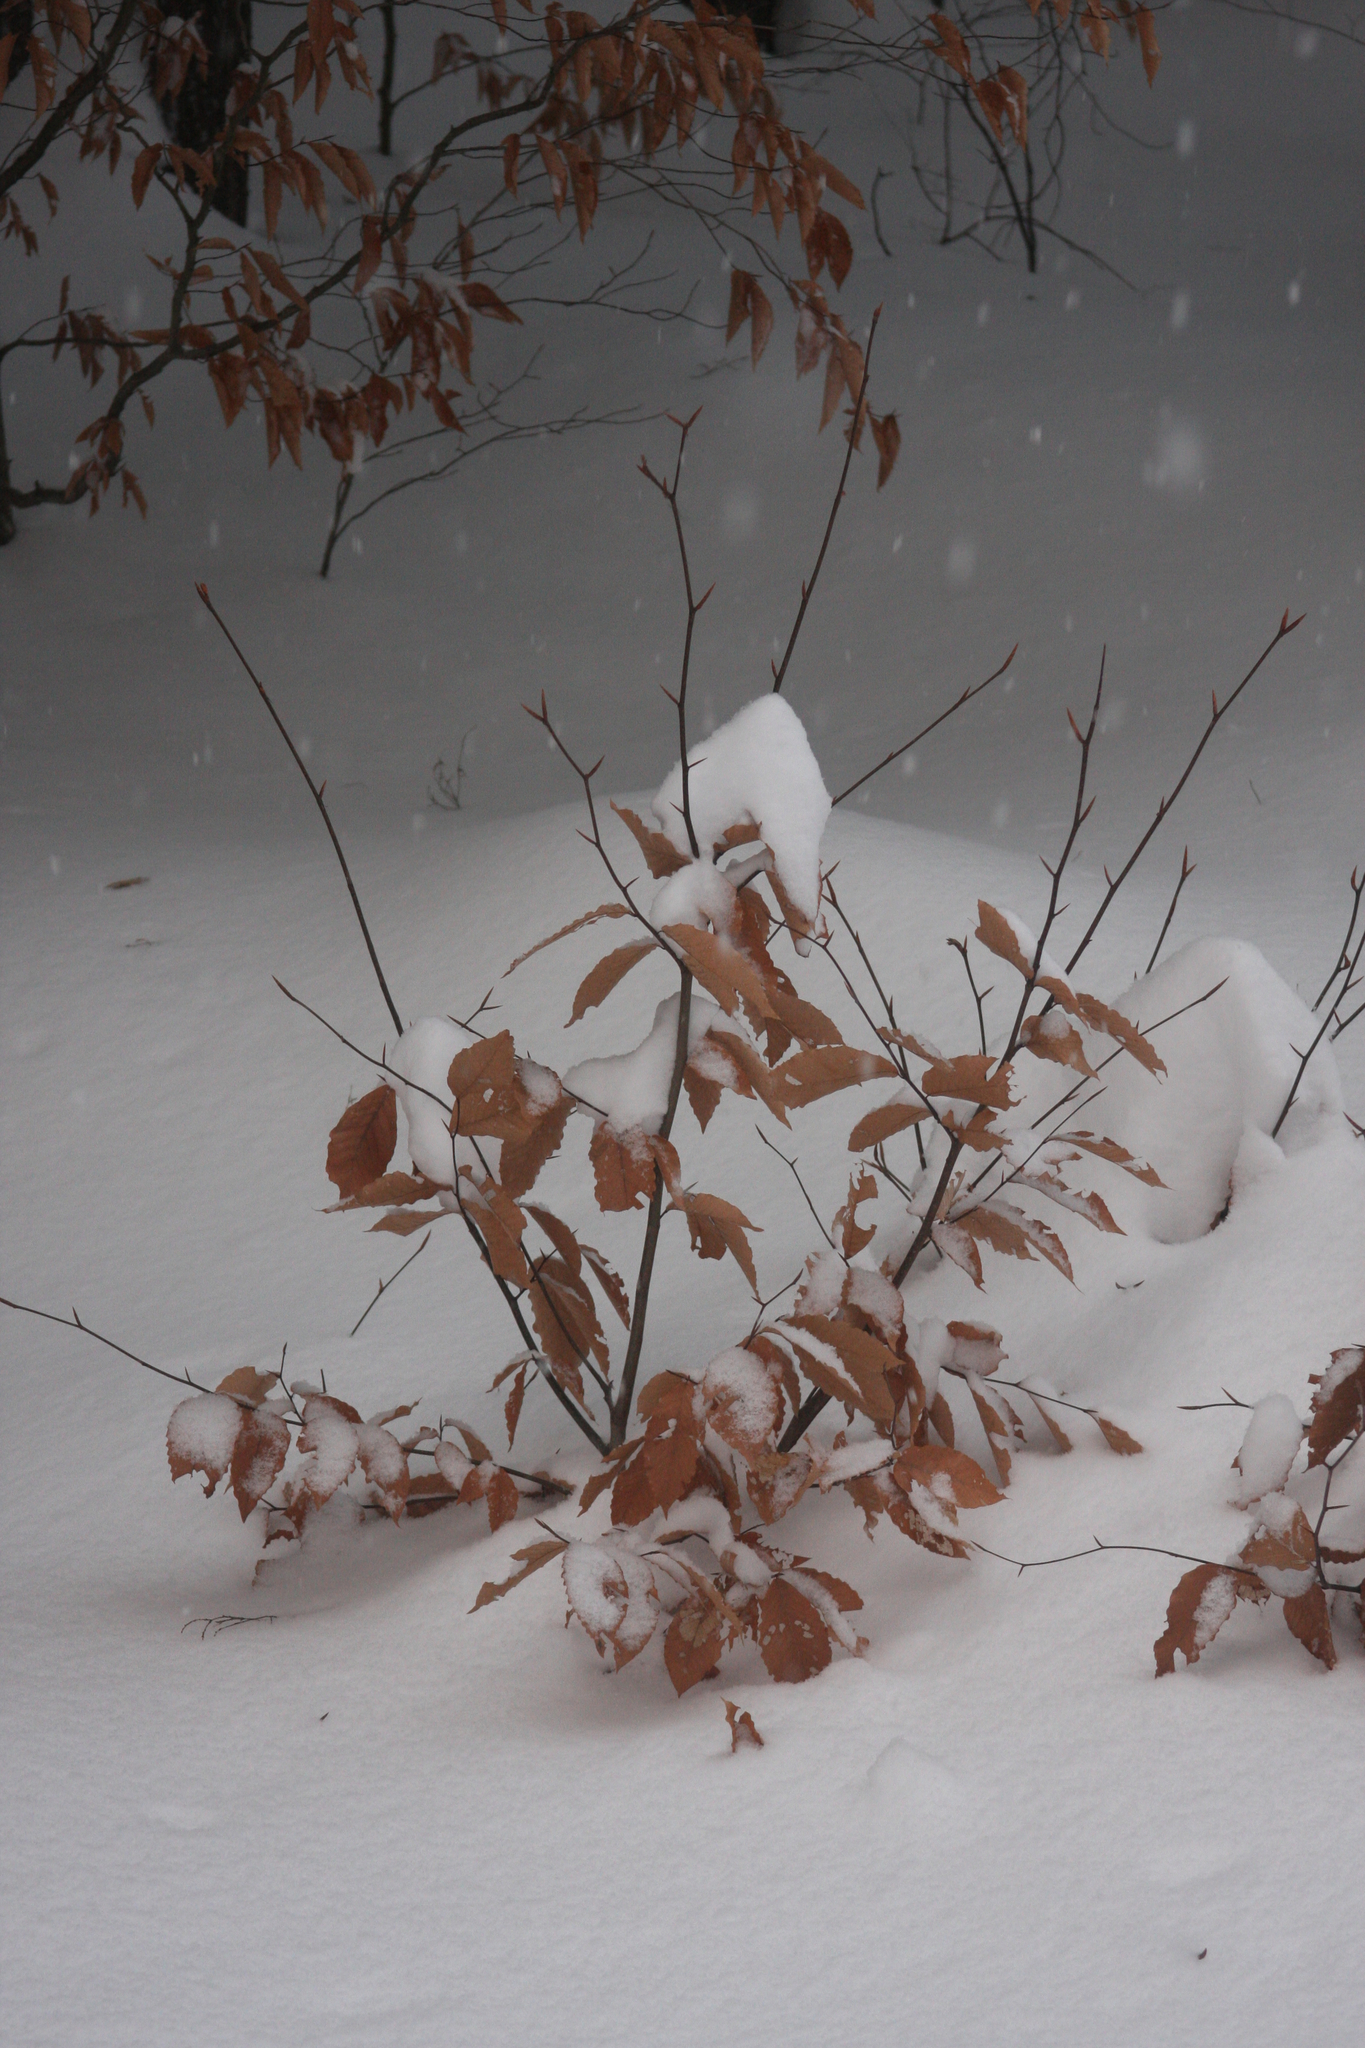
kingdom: Plantae
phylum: Tracheophyta
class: Magnoliopsida
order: Fagales
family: Fagaceae
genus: Fagus
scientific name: Fagus grandifolia
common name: American beech
